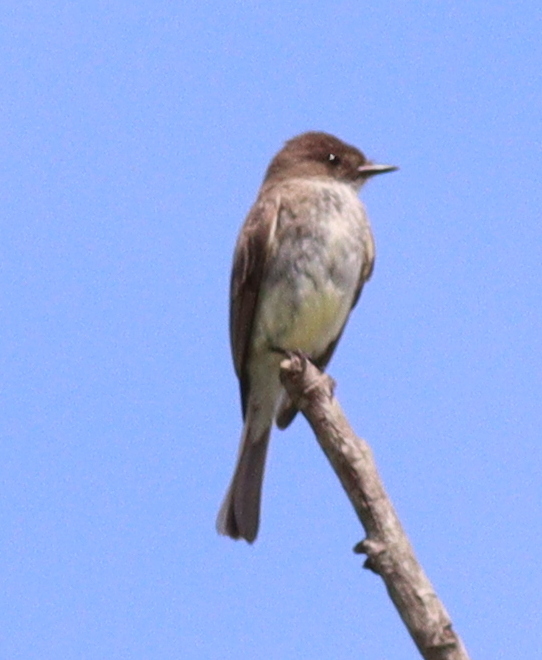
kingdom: Animalia
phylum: Chordata
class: Aves
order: Passeriformes
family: Tyrannidae
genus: Sayornis
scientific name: Sayornis phoebe
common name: Eastern phoebe
